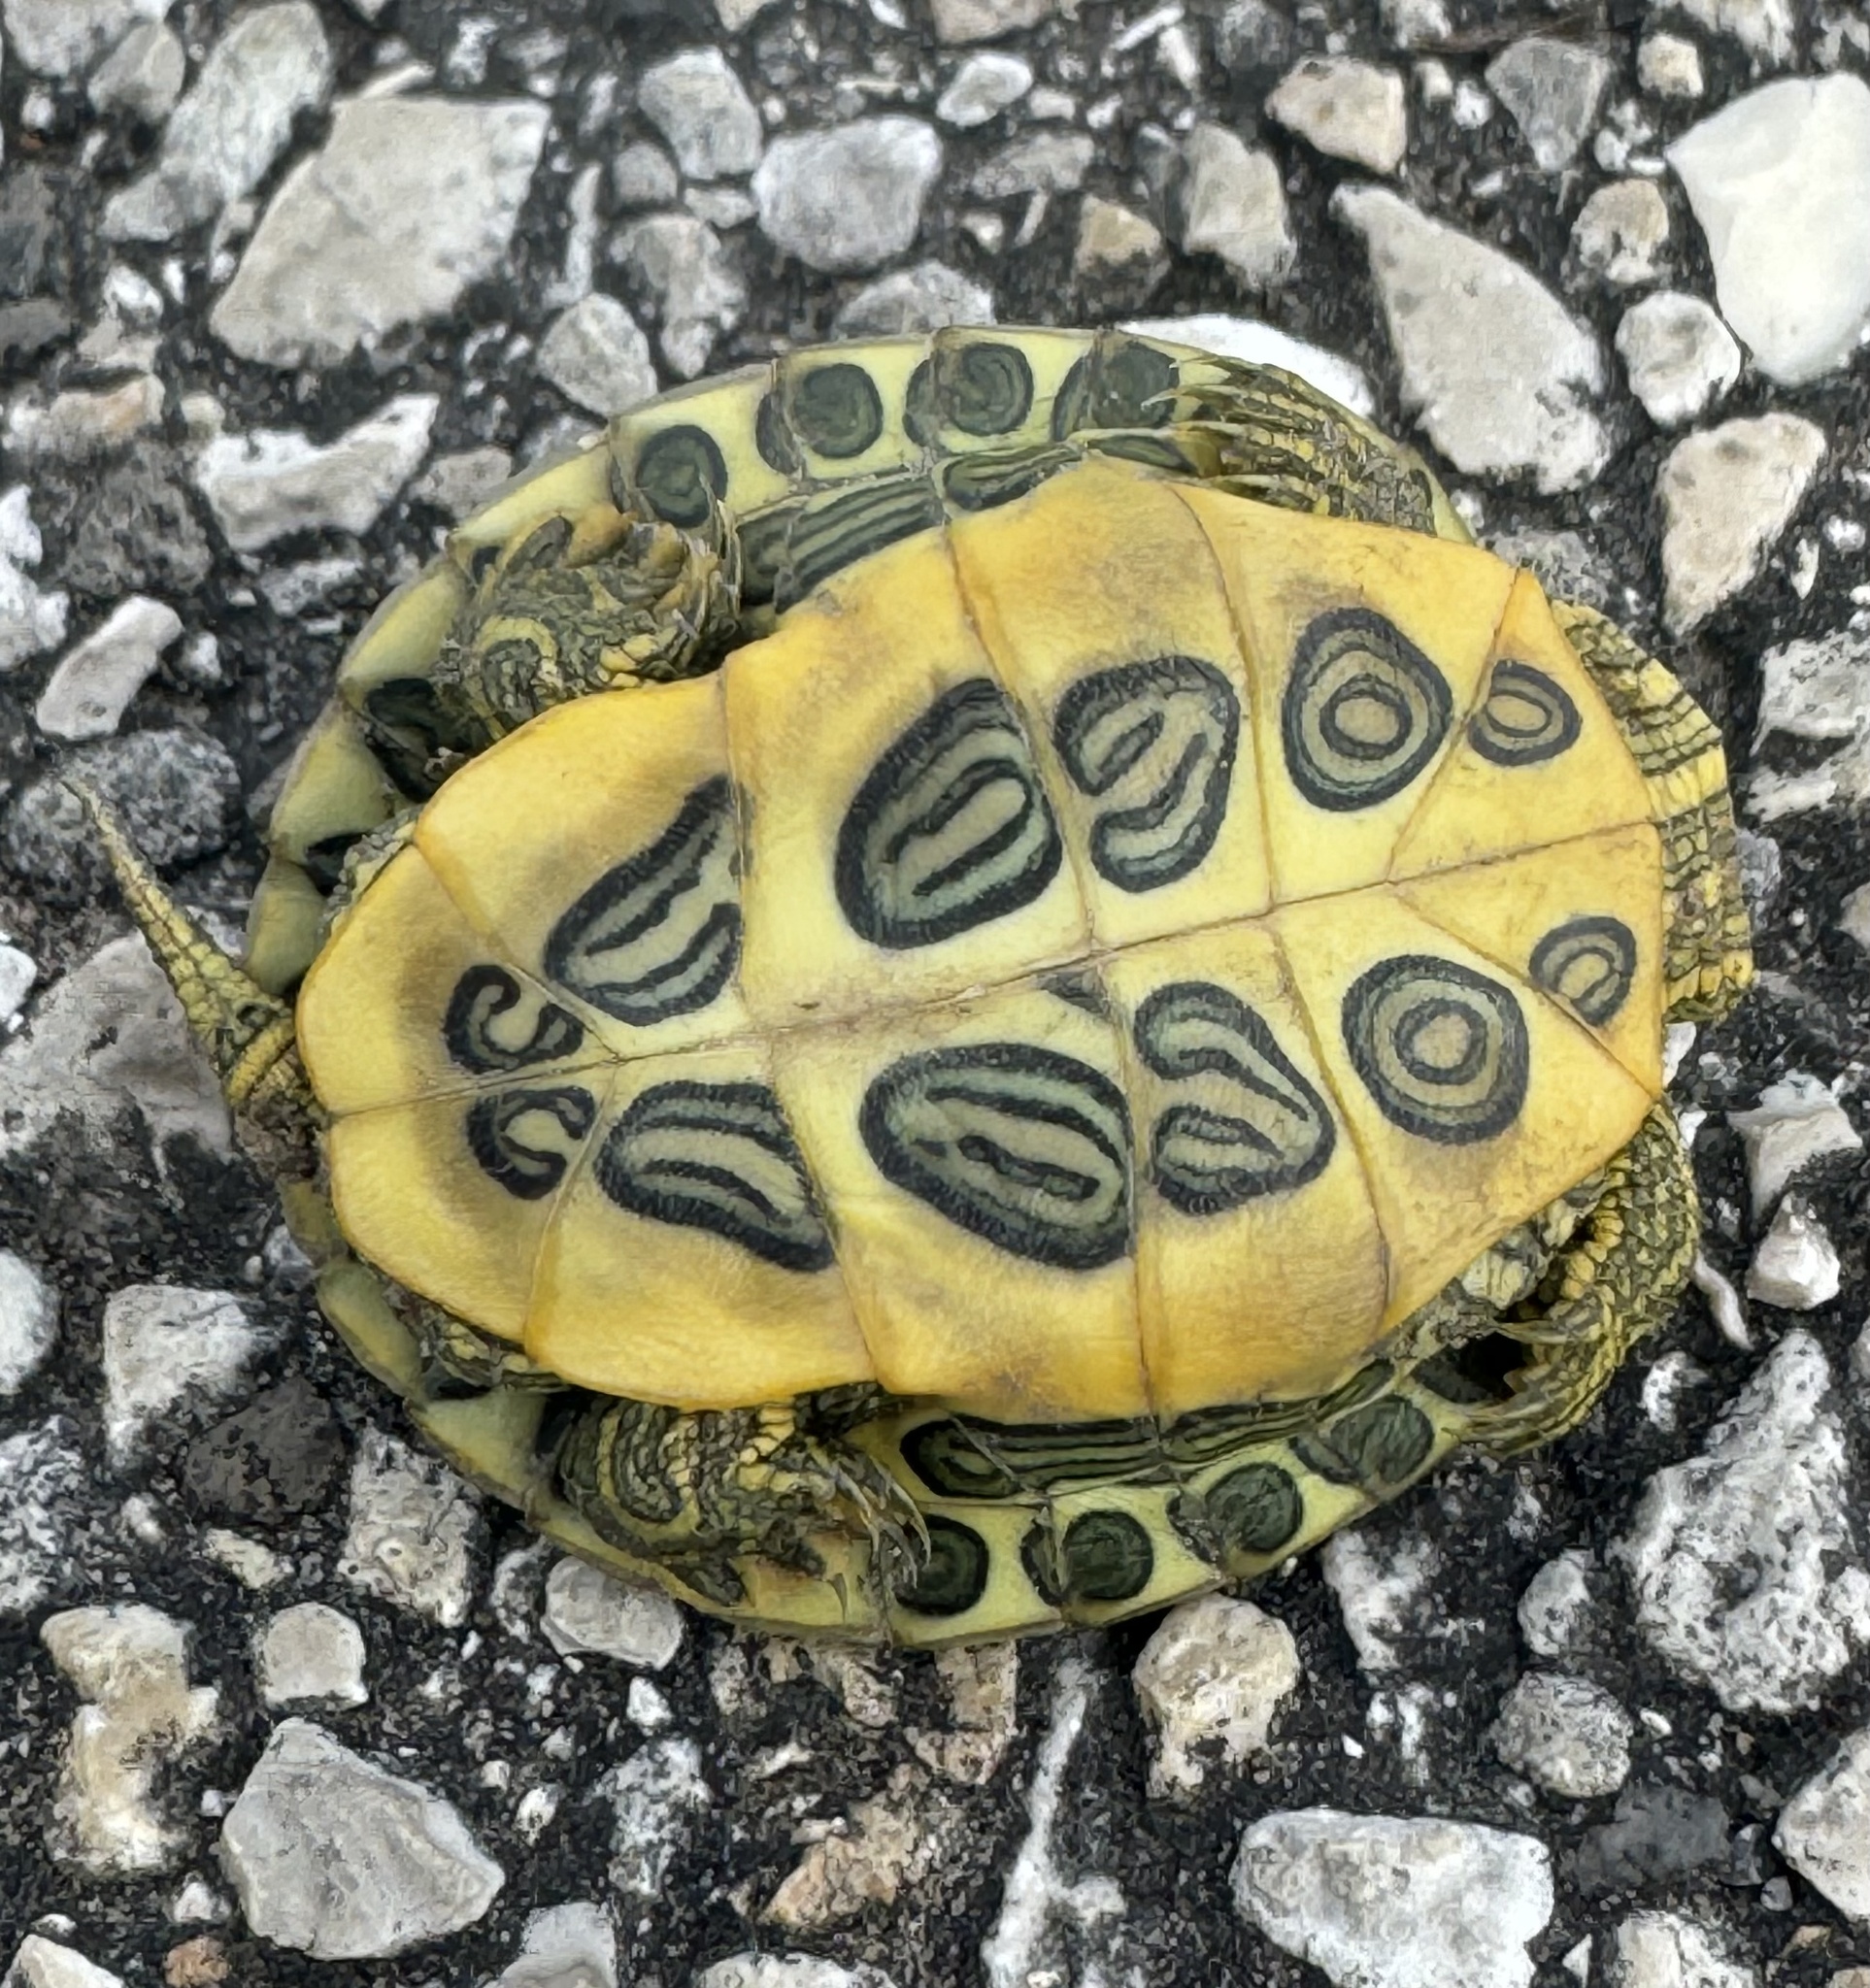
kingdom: Animalia
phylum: Chordata
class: Testudines
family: Emydidae
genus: Trachemys
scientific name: Trachemys scripta
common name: Slider
